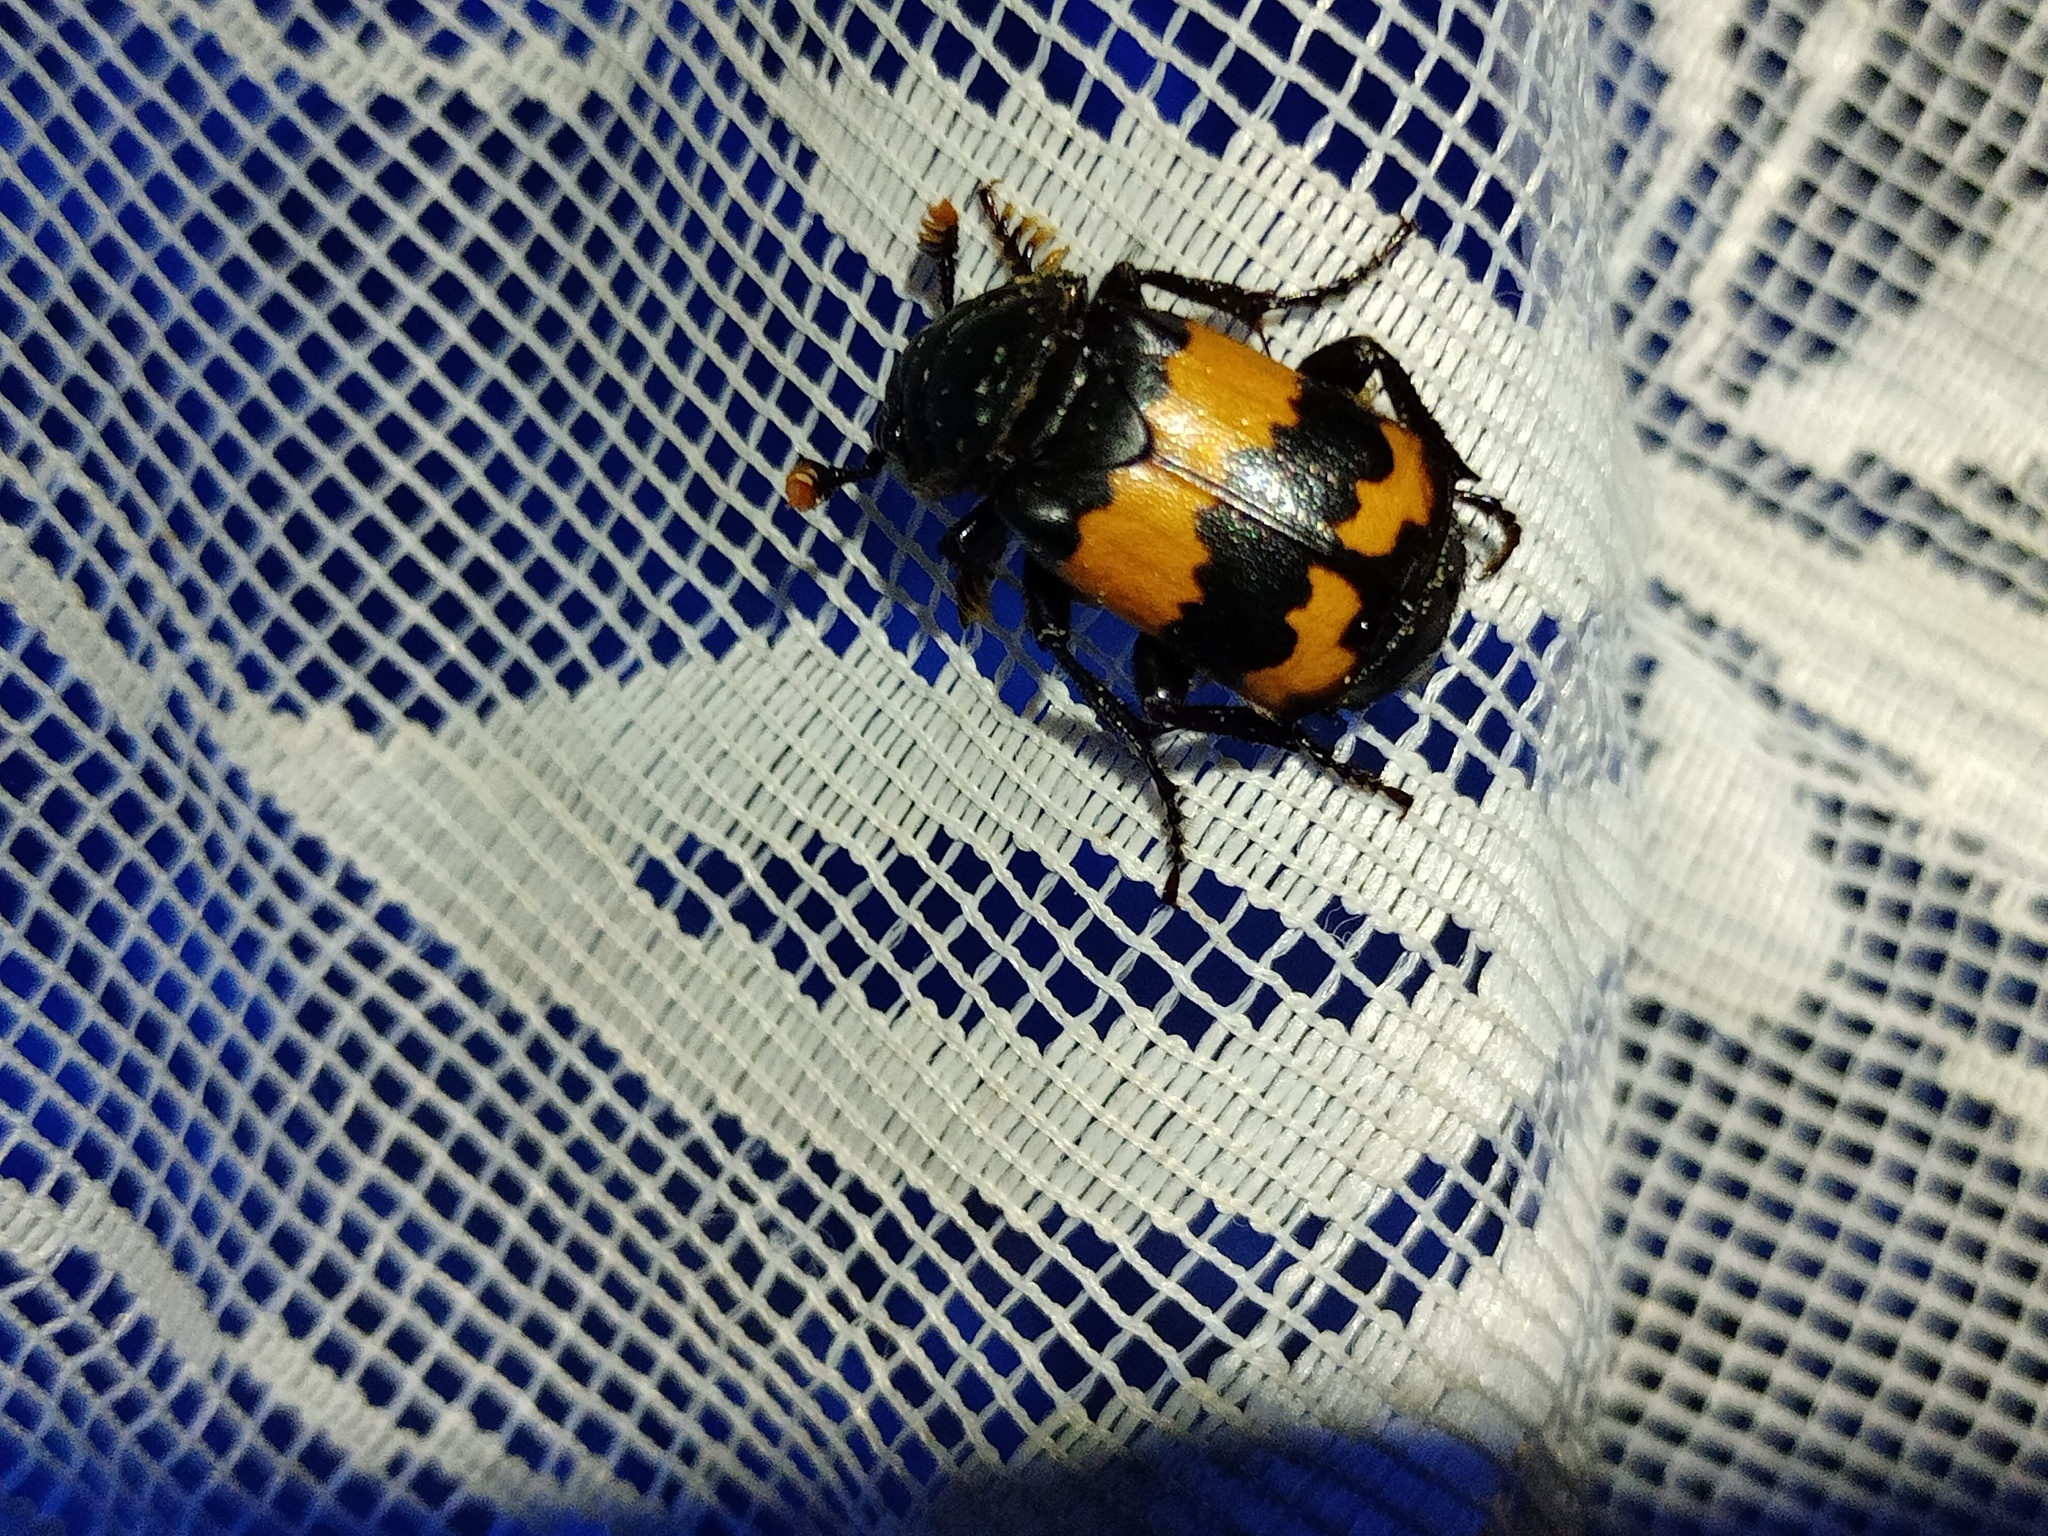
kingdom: Animalia
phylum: Arthropoda
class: Insecta
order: Coleoptera
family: Staphylinidae
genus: Nicrophorus
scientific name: Nicrophorus investigator
